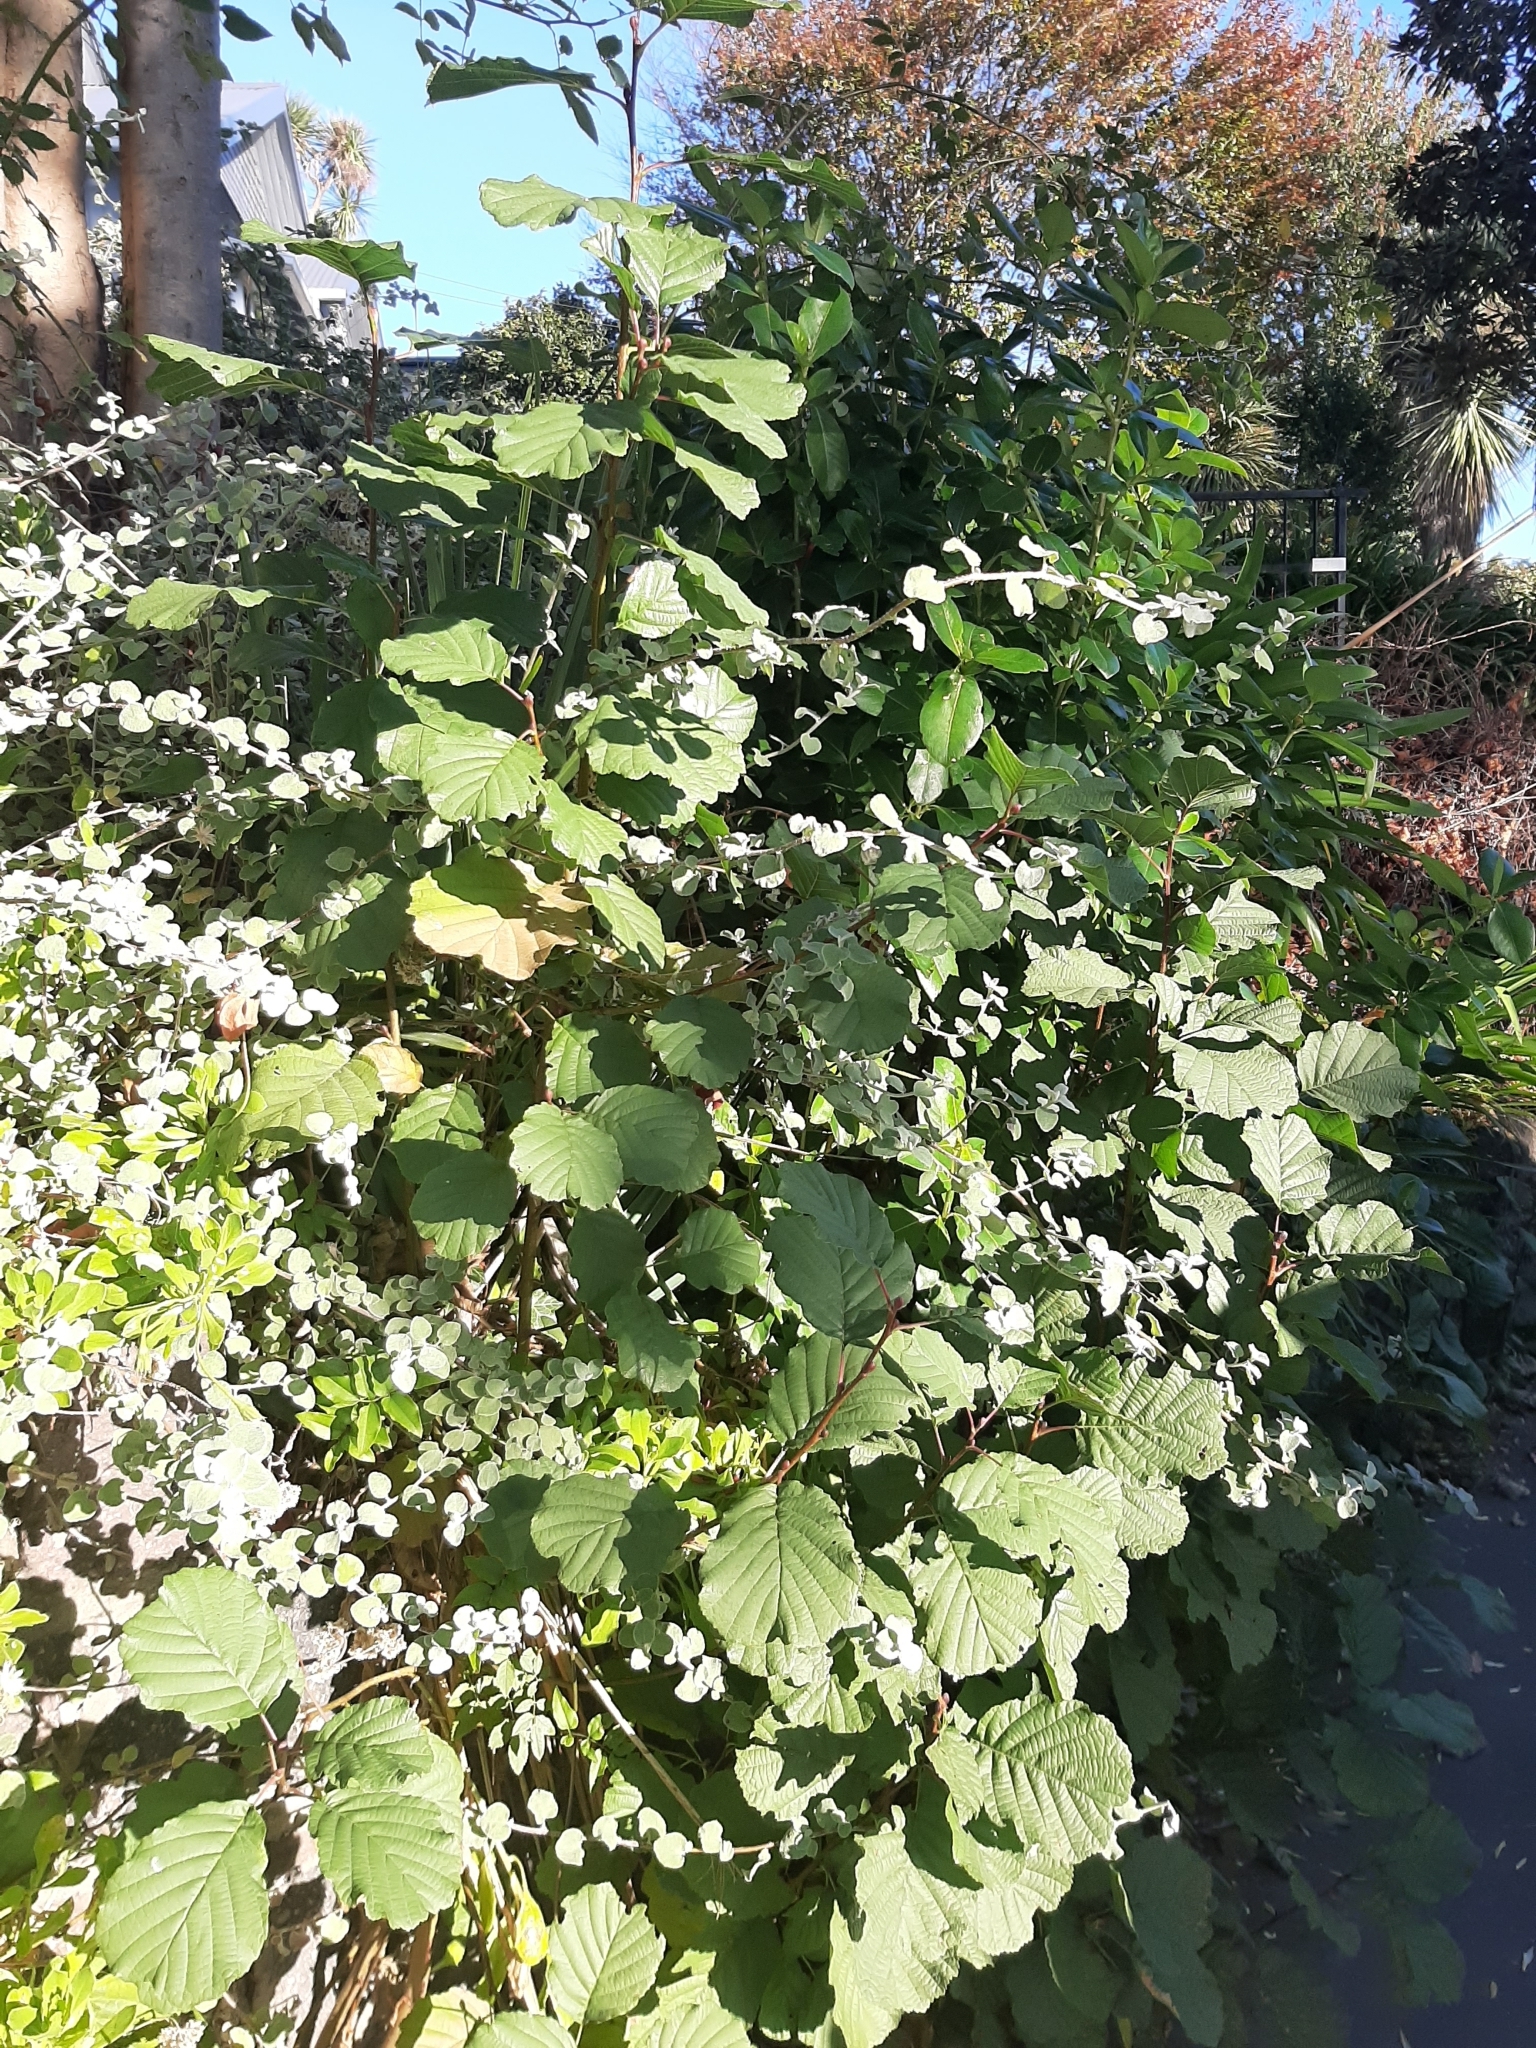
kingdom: Plantae
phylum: Tracheophyta
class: Magnoliopsida
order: Fagales
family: Betulaceae
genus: Alnus
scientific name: Alnus glutinosa
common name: Black alder
